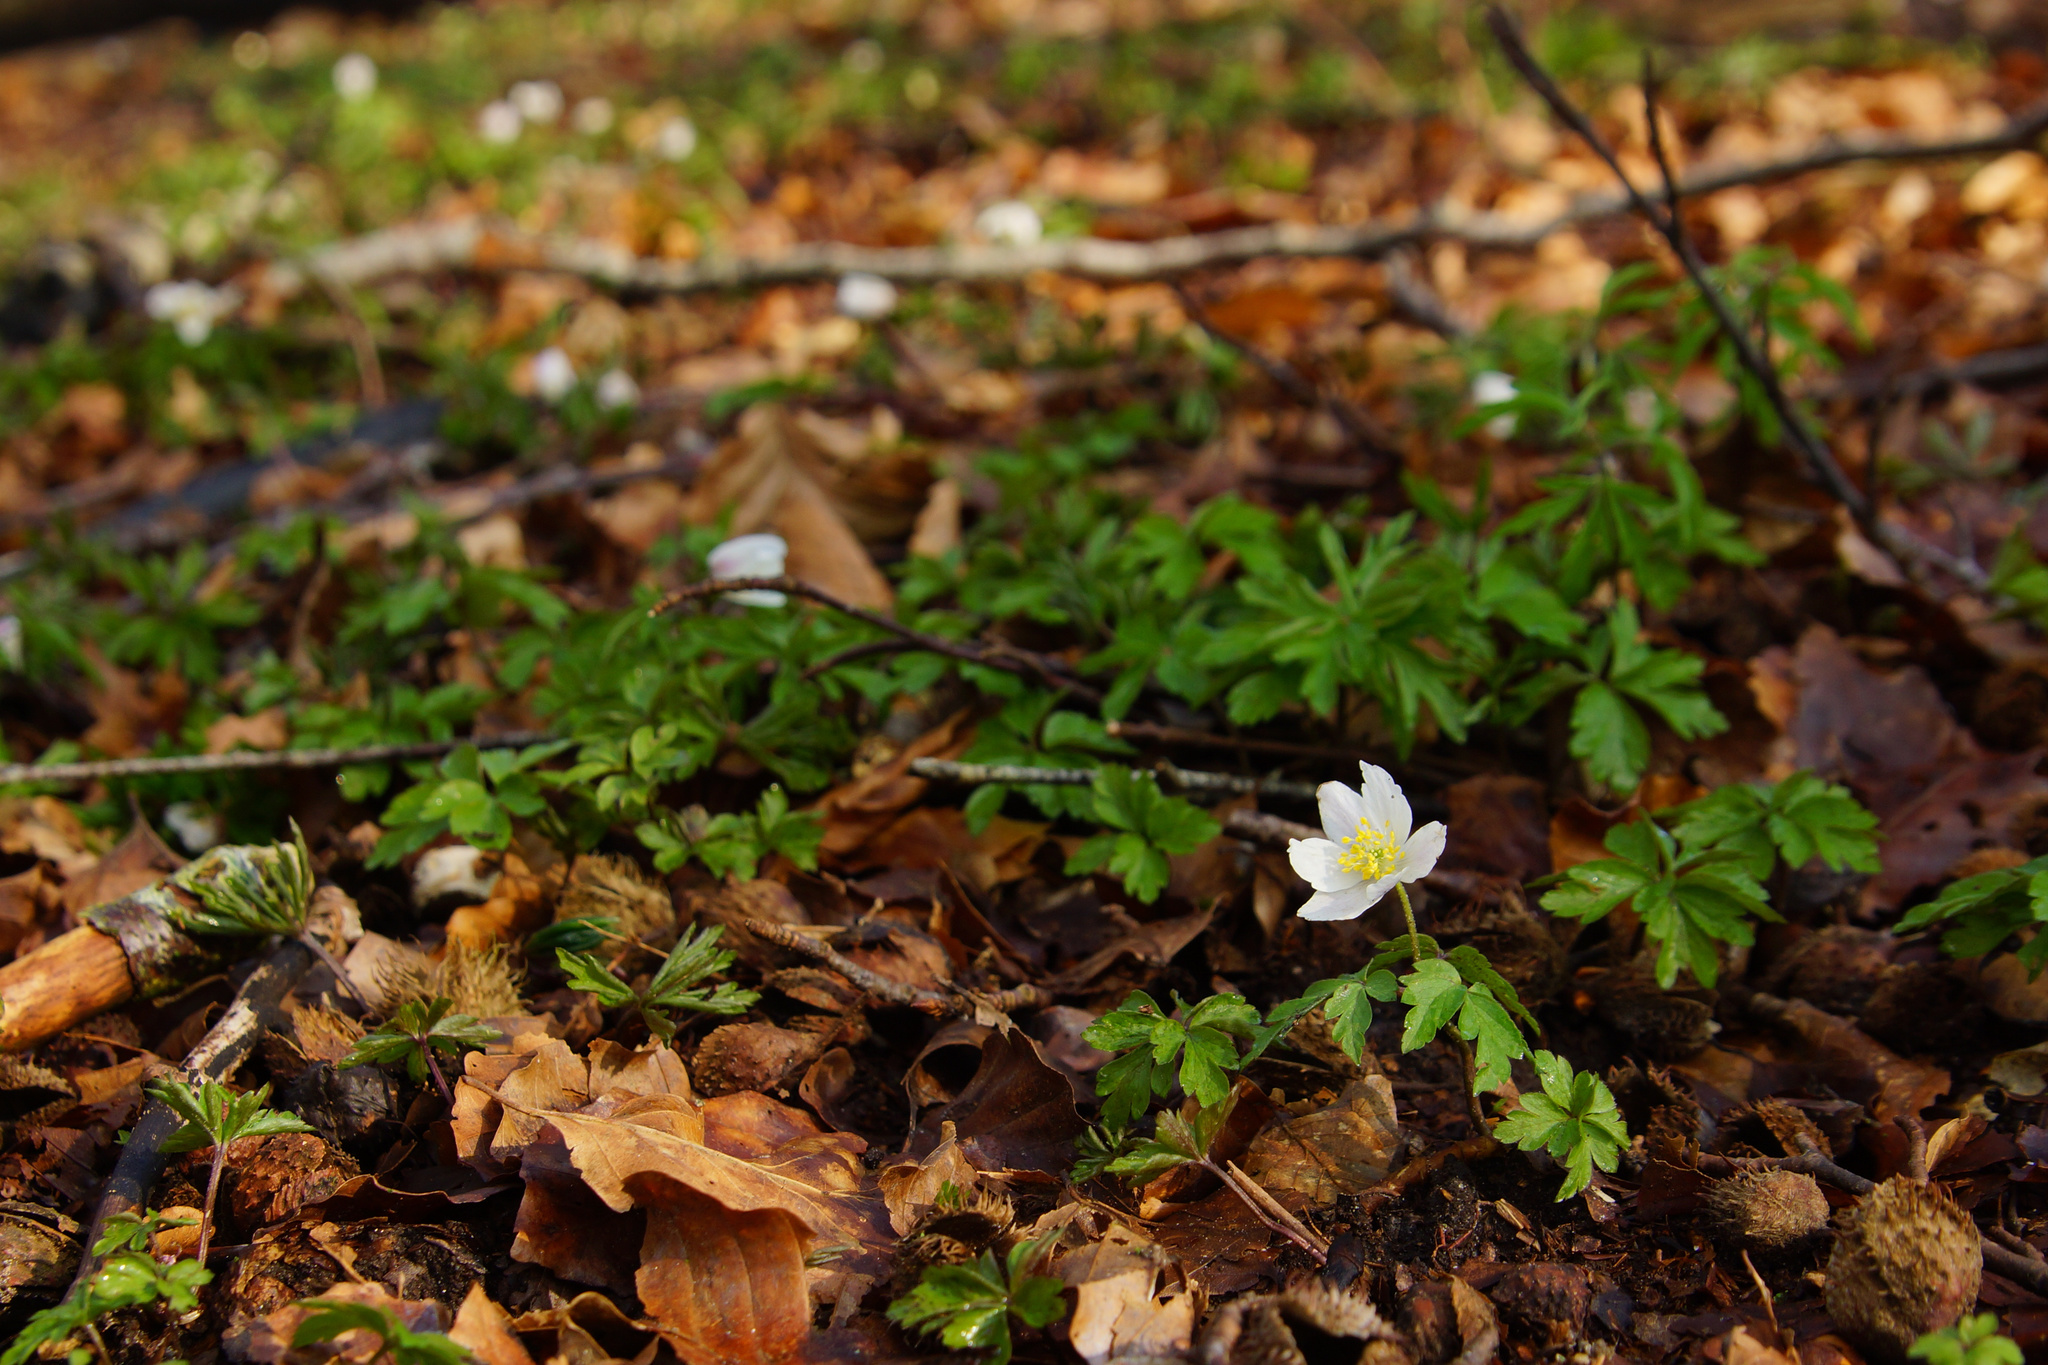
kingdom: Plantae
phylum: Tracheophyta
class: Magnoliopsida
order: Ranunculales
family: Ranunculaceae
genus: Anemone
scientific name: Anemone nemorosa
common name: Wood anemone
